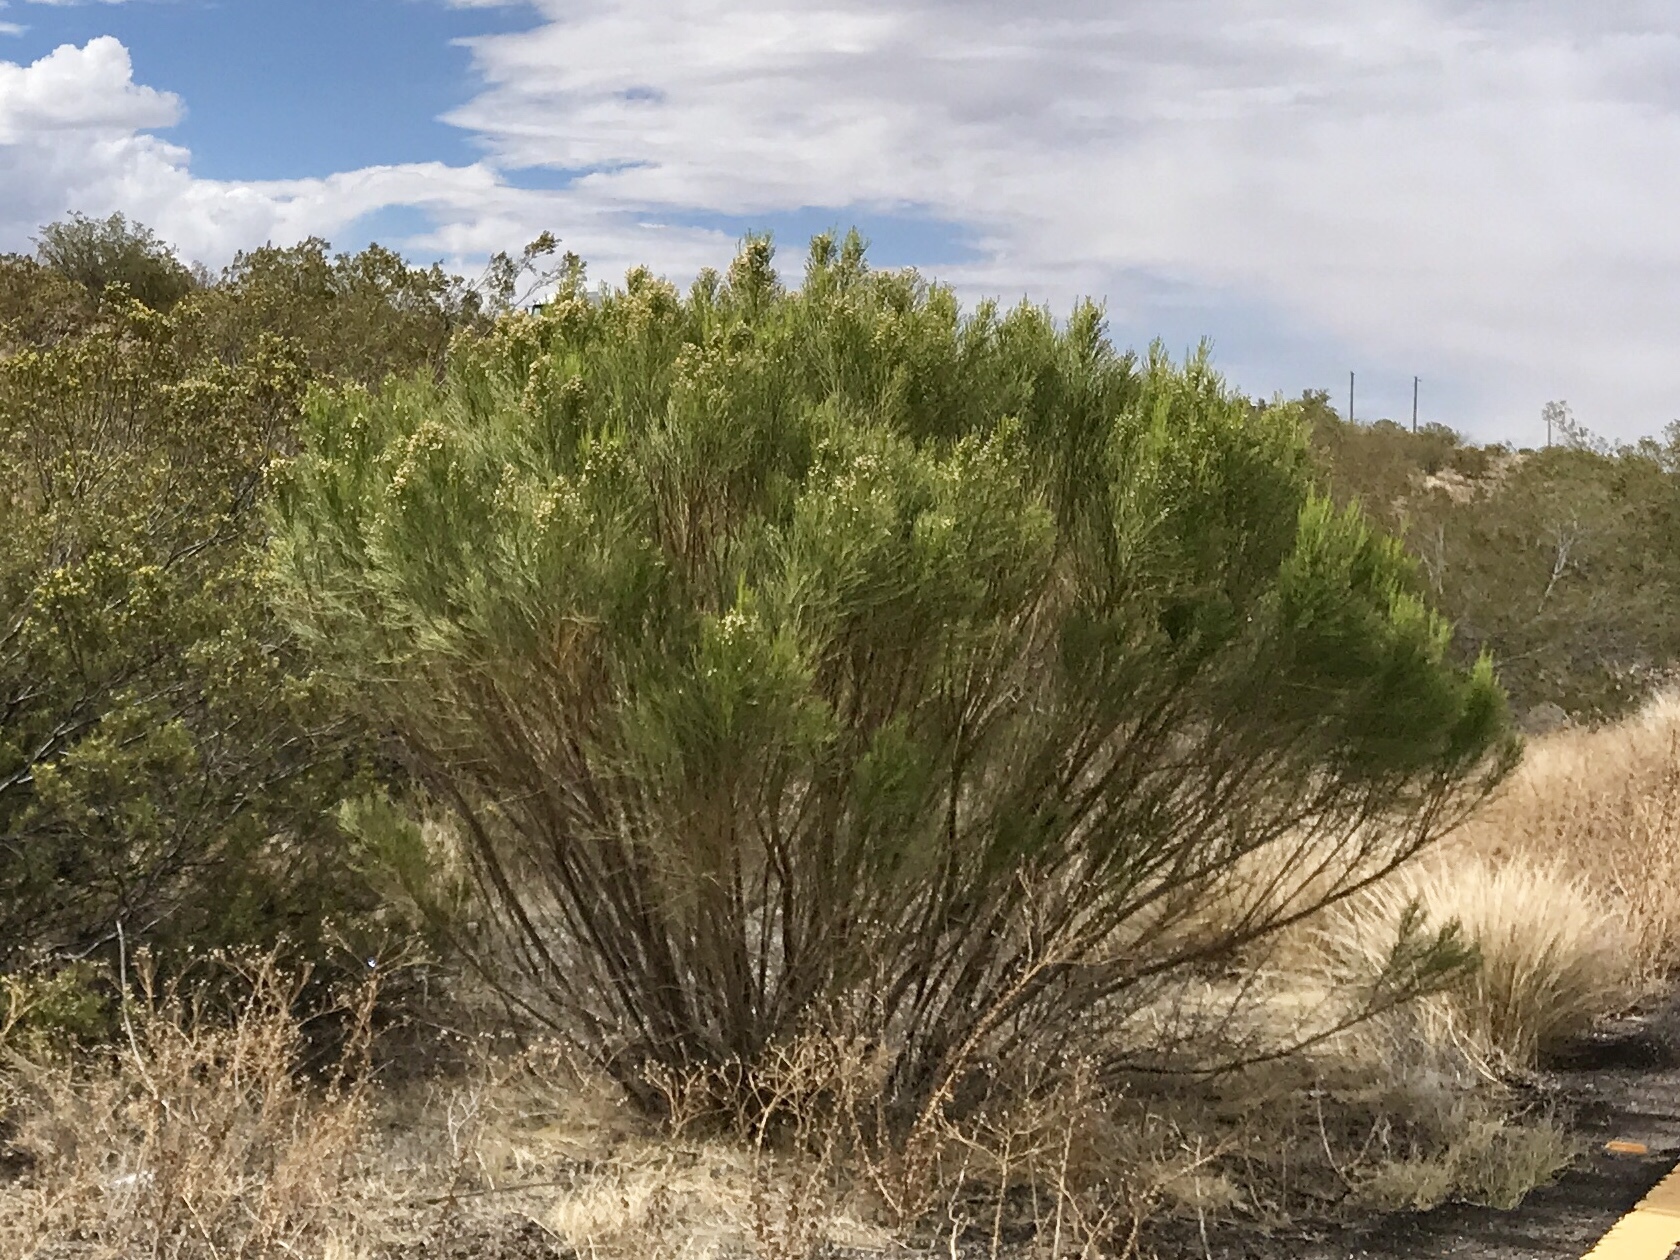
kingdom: Plantae
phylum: Tracheophyta
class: Magnoliopsida
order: Asterales
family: Asteraceae
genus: Baccharis
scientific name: Baccharis sarothroides
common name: Desert-broom
